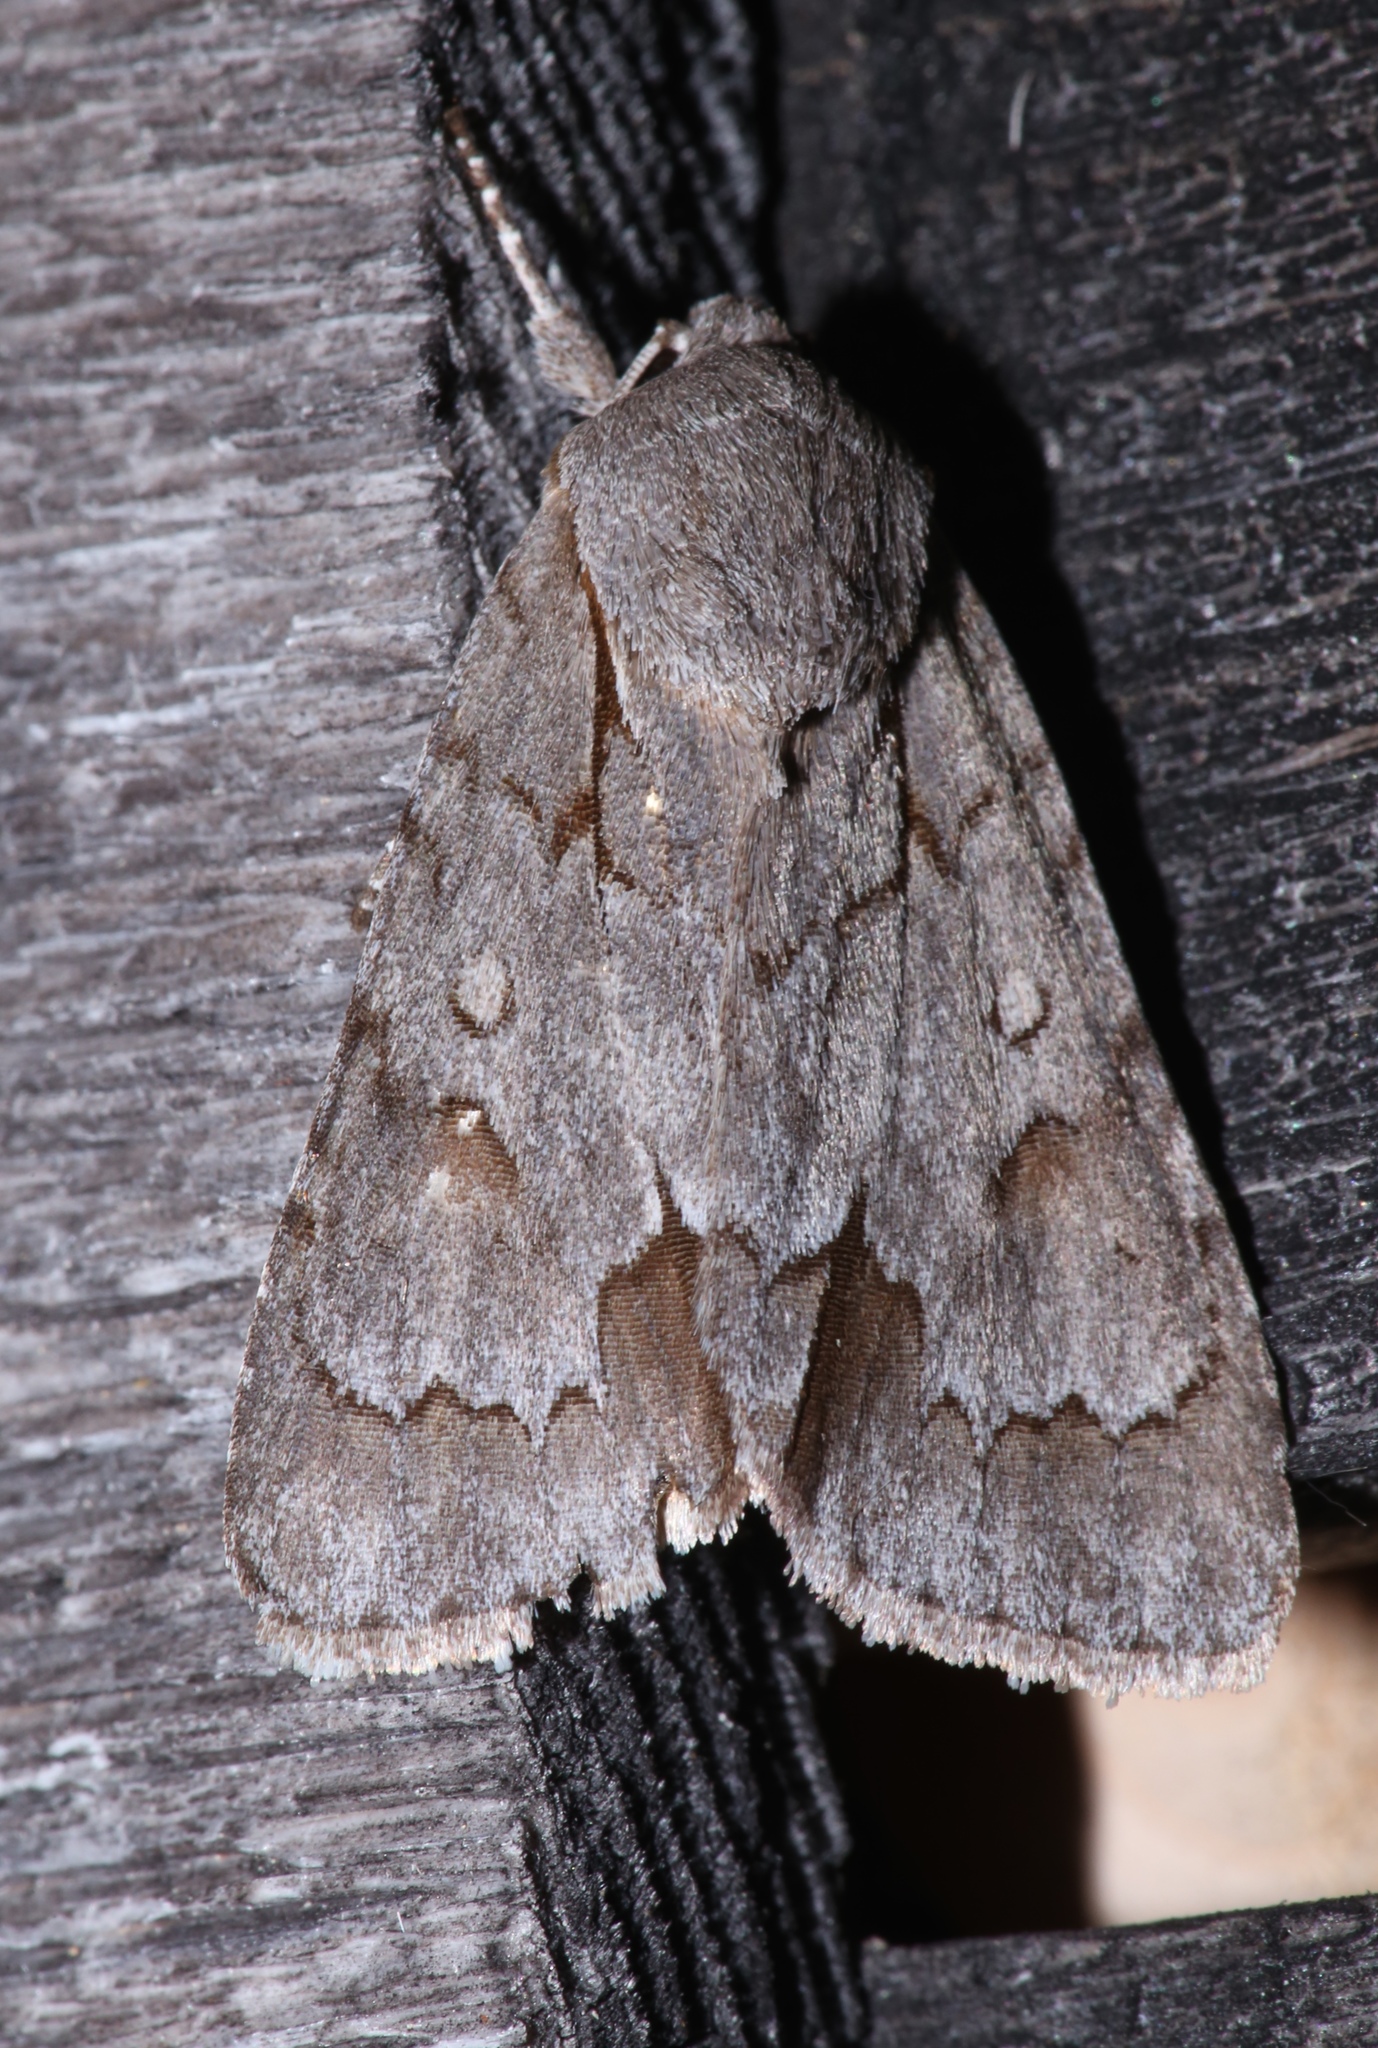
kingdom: Animalia
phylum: Arthropoda
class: Insecta
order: Lepidoptera
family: Noctuidae
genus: Acronicta
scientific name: Acronicta tritona
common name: Triton dagger
